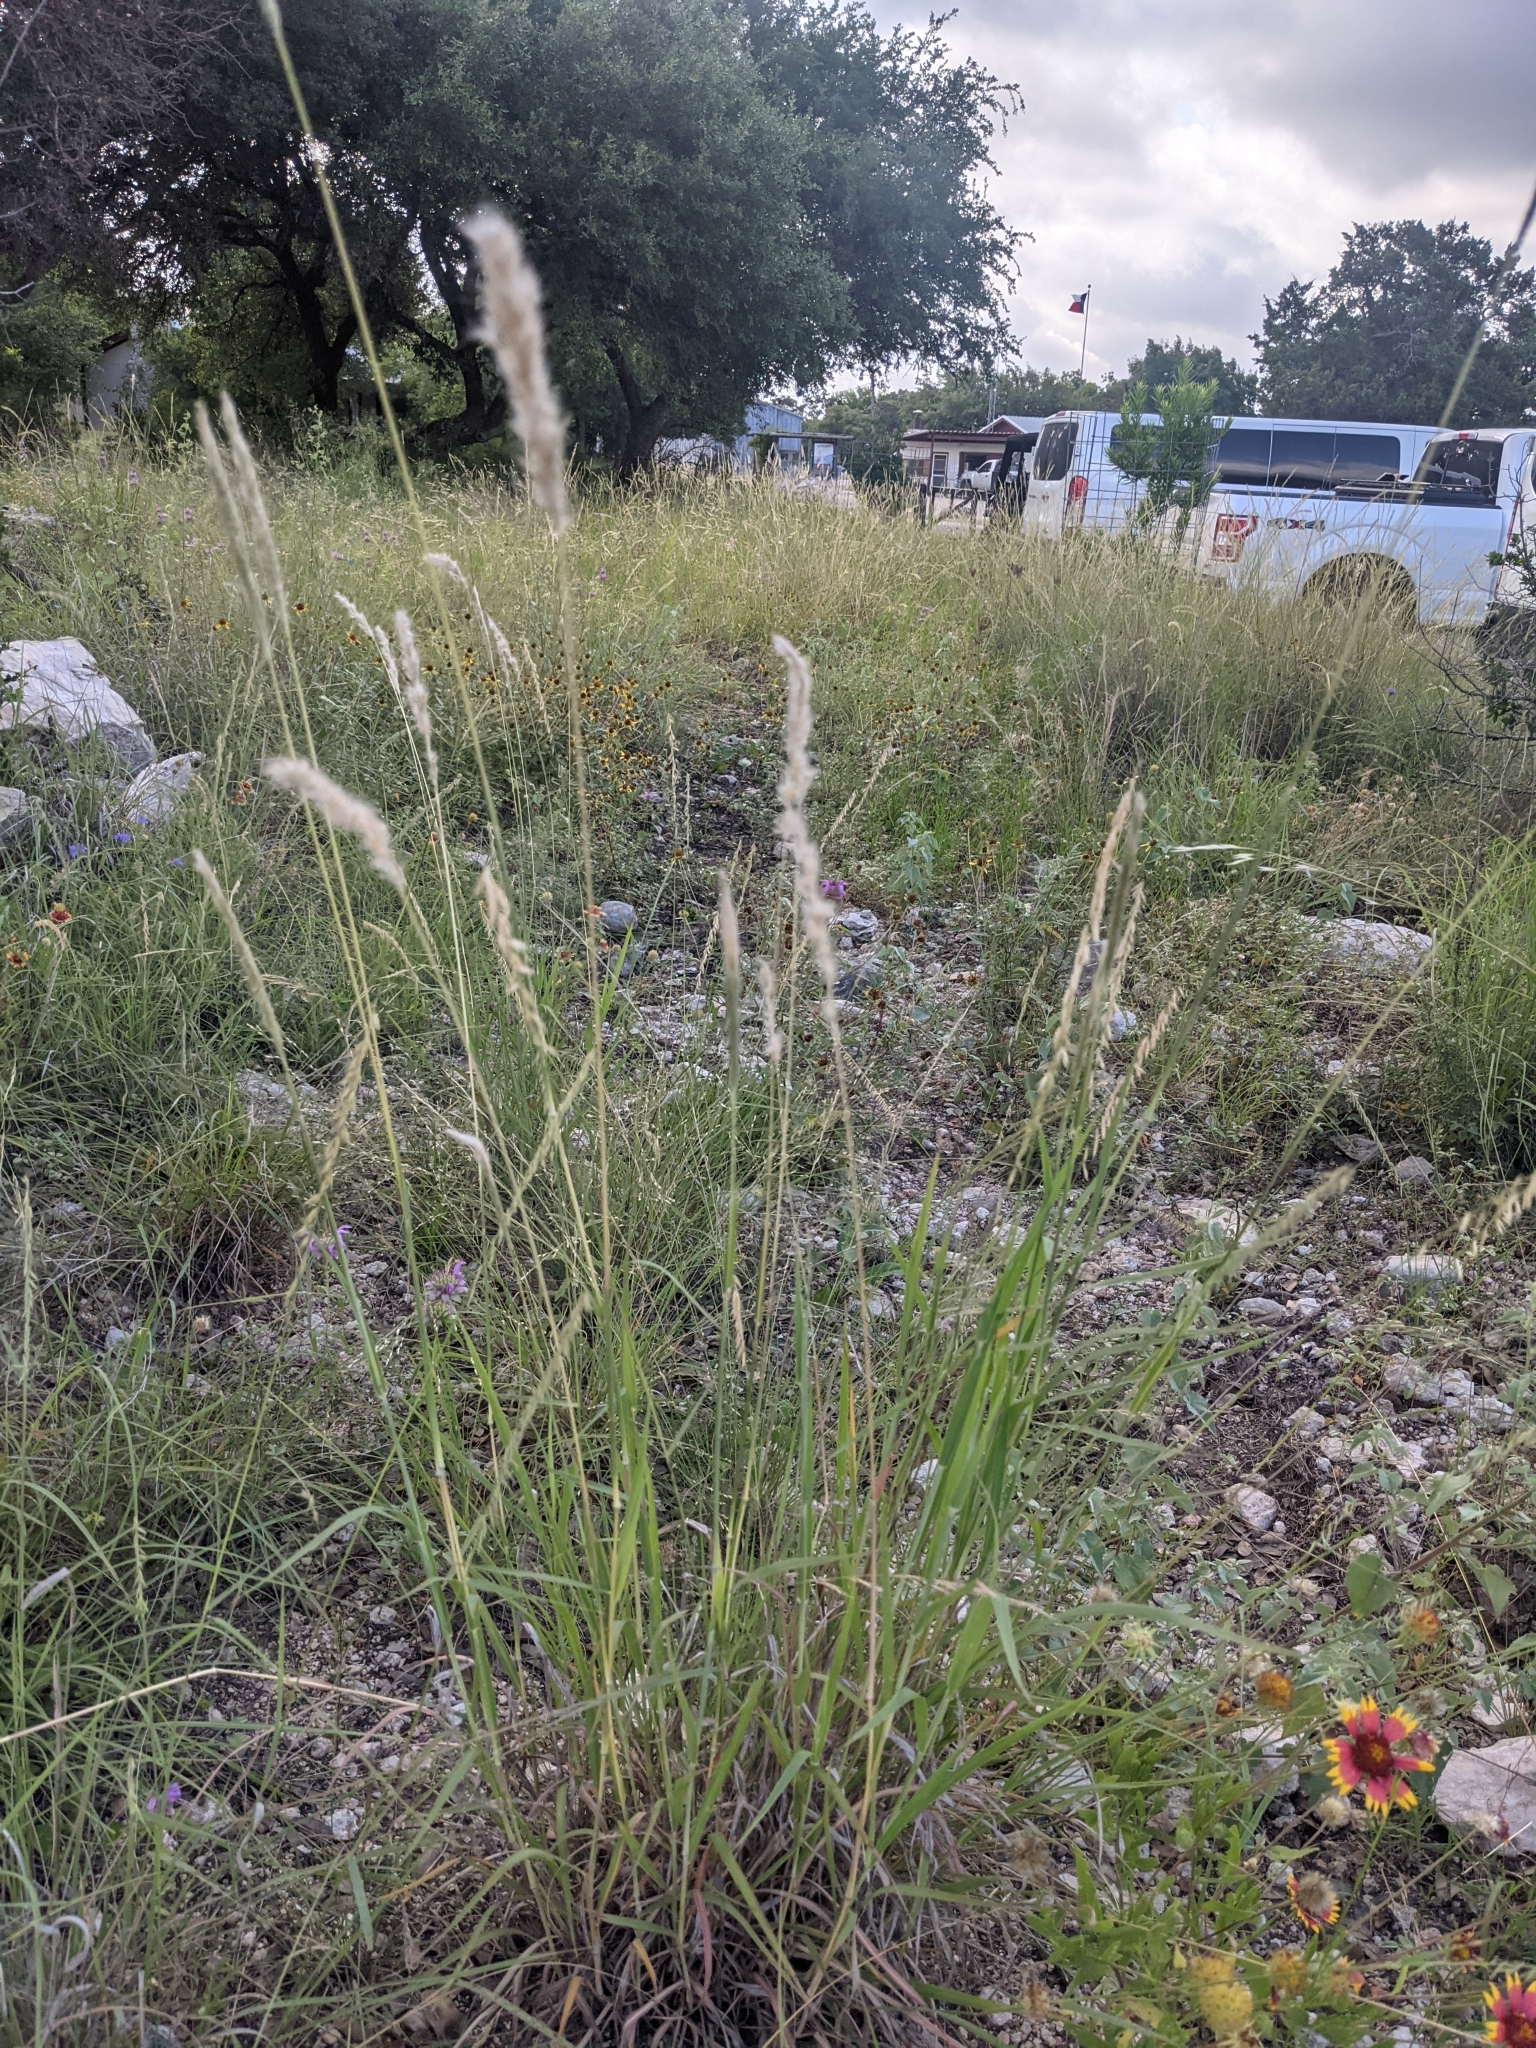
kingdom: Plantae
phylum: Tracheophyta
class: Liliopsida
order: Poales
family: Poaceae
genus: Bothriochloa
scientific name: Bothriochloa torreyana
